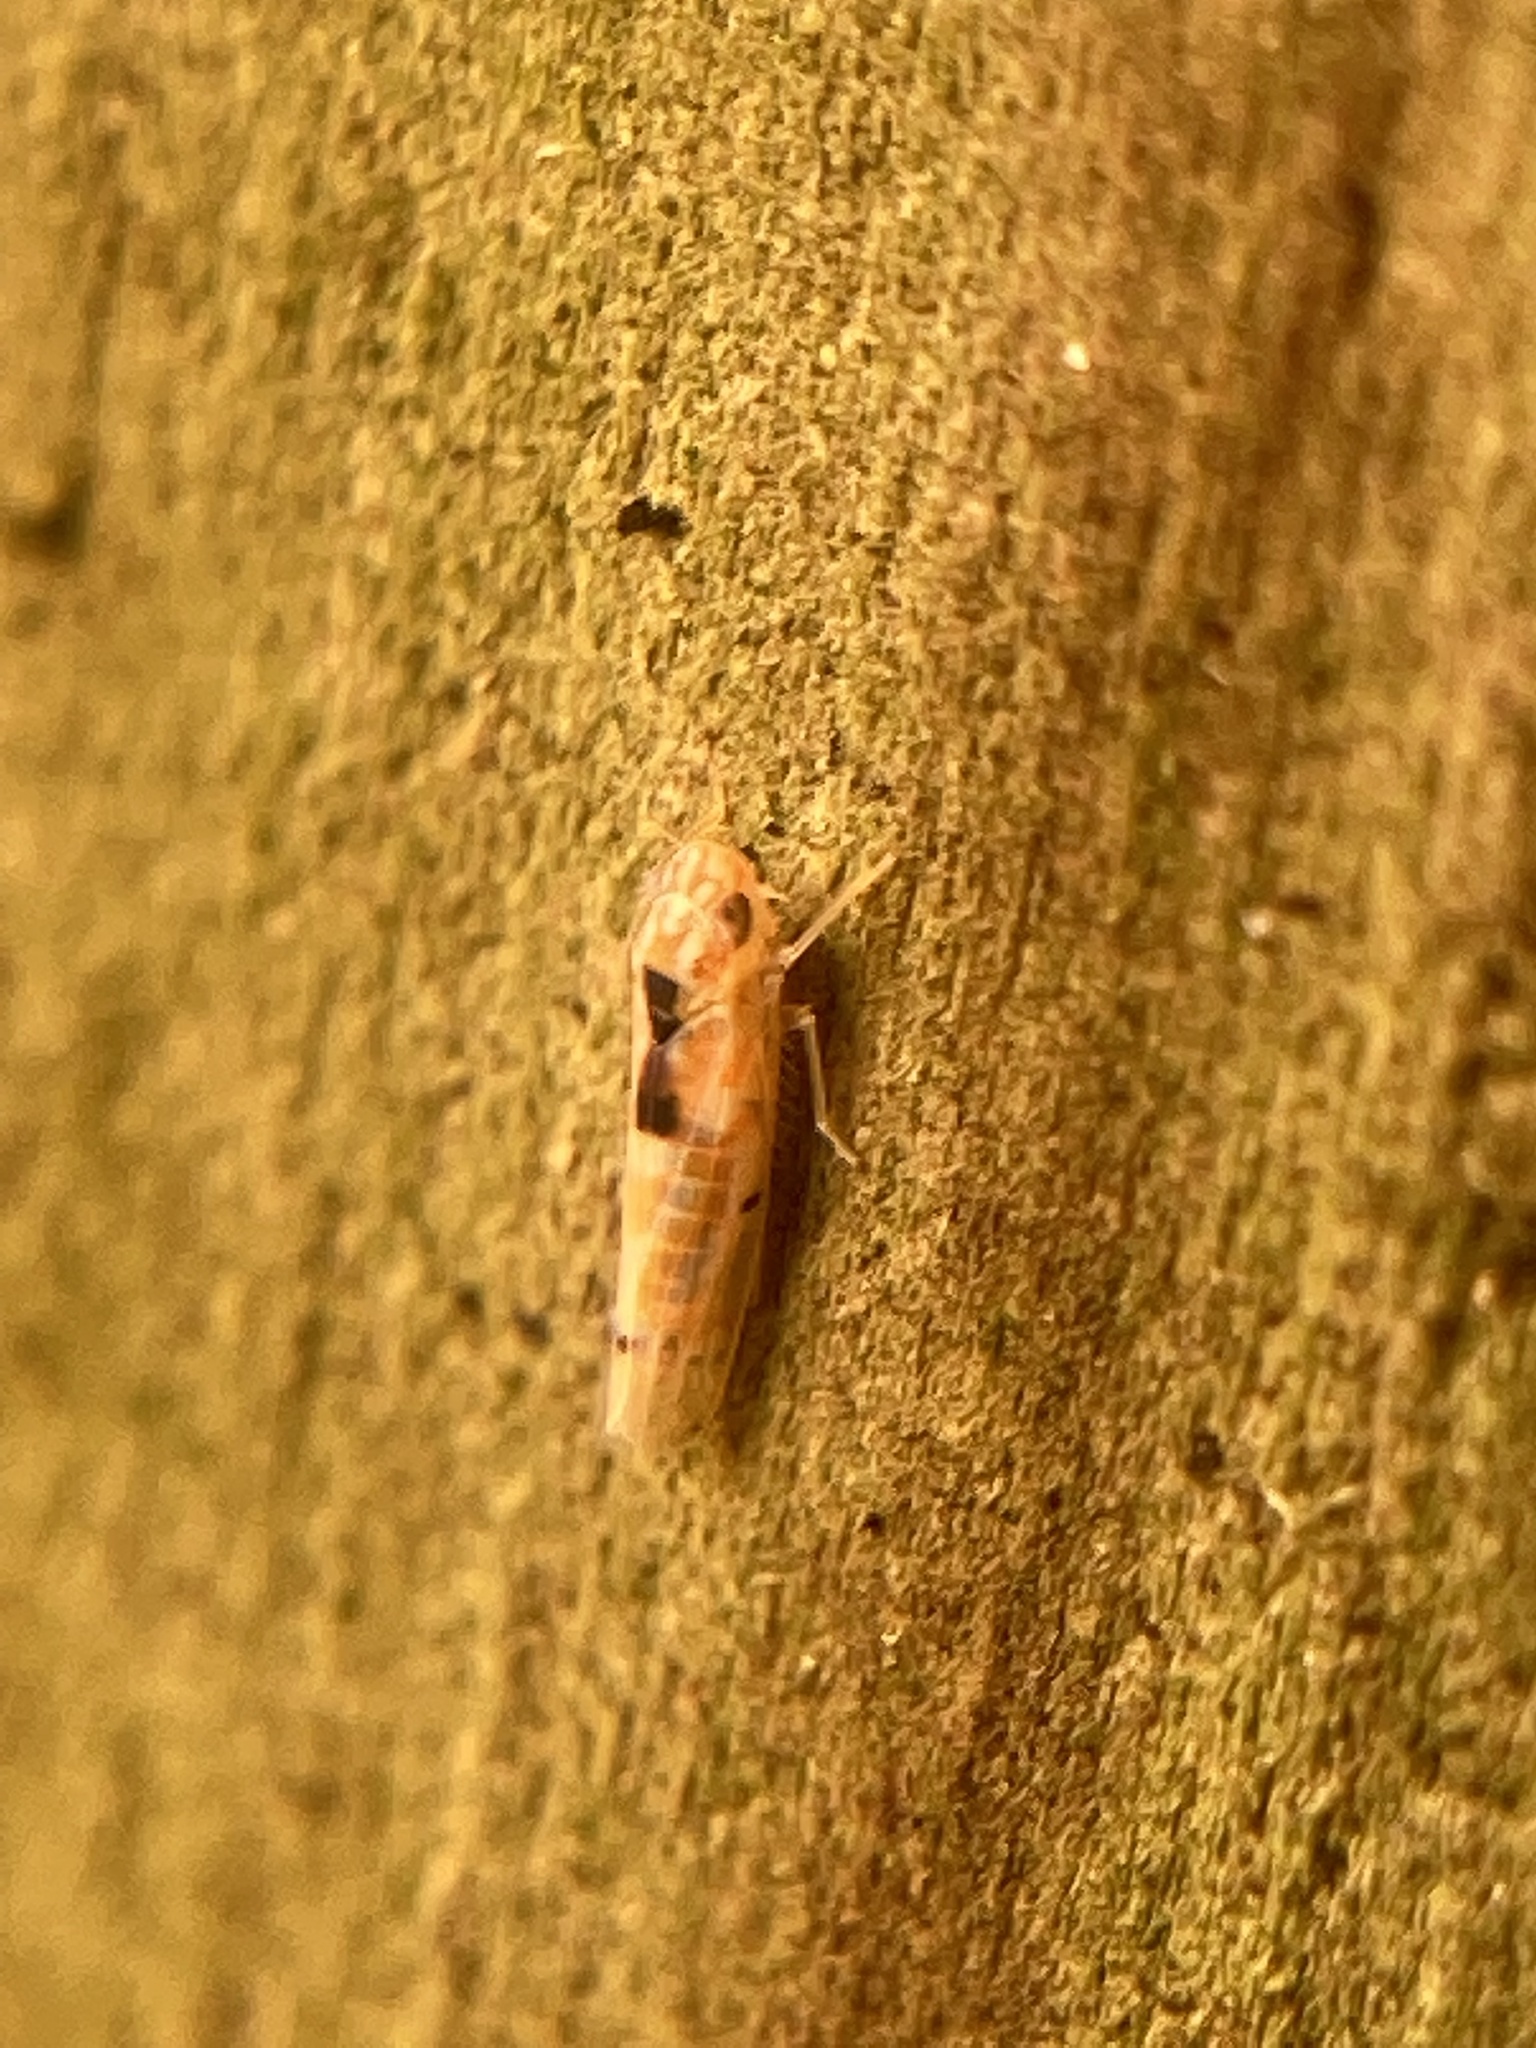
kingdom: Animalia
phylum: Arthropoda
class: Insecta
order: Hemiptera
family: Cicadellidae
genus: Erythroneura
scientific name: Erythroneura octonotata
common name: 8-spotted leafhopper
